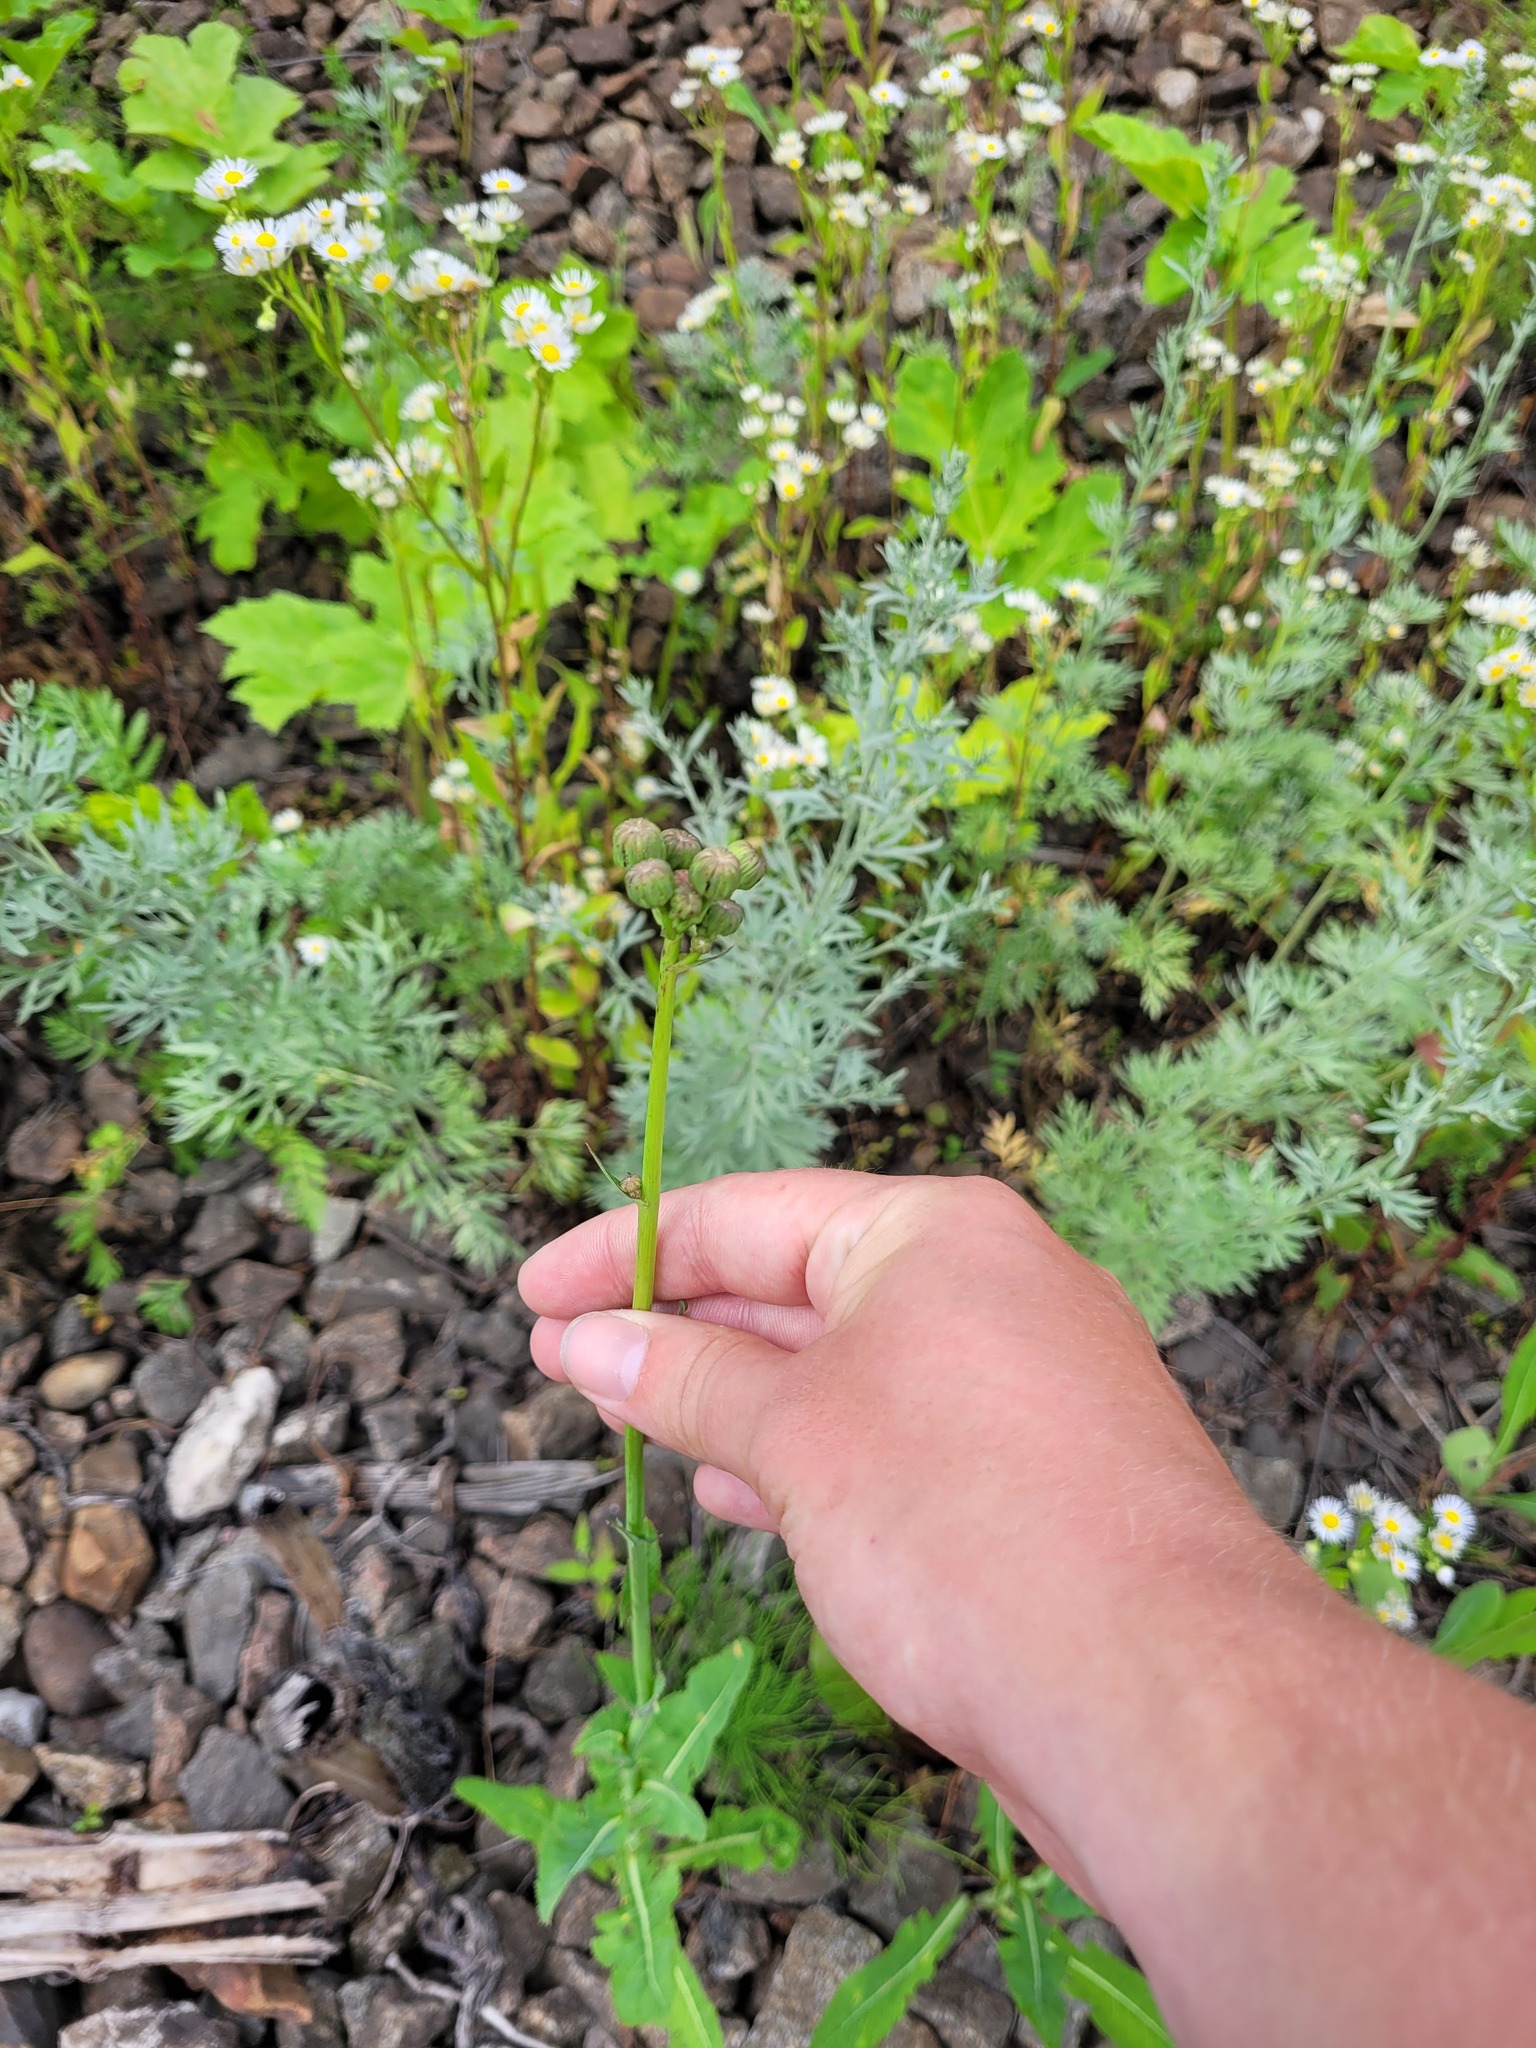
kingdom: Plantae
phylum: Tracheophyta
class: Magnoliopsida
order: Asterales
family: Asteraceae
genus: Sonchus
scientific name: Sonchus arvensis
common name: Perennial sow-thistle
